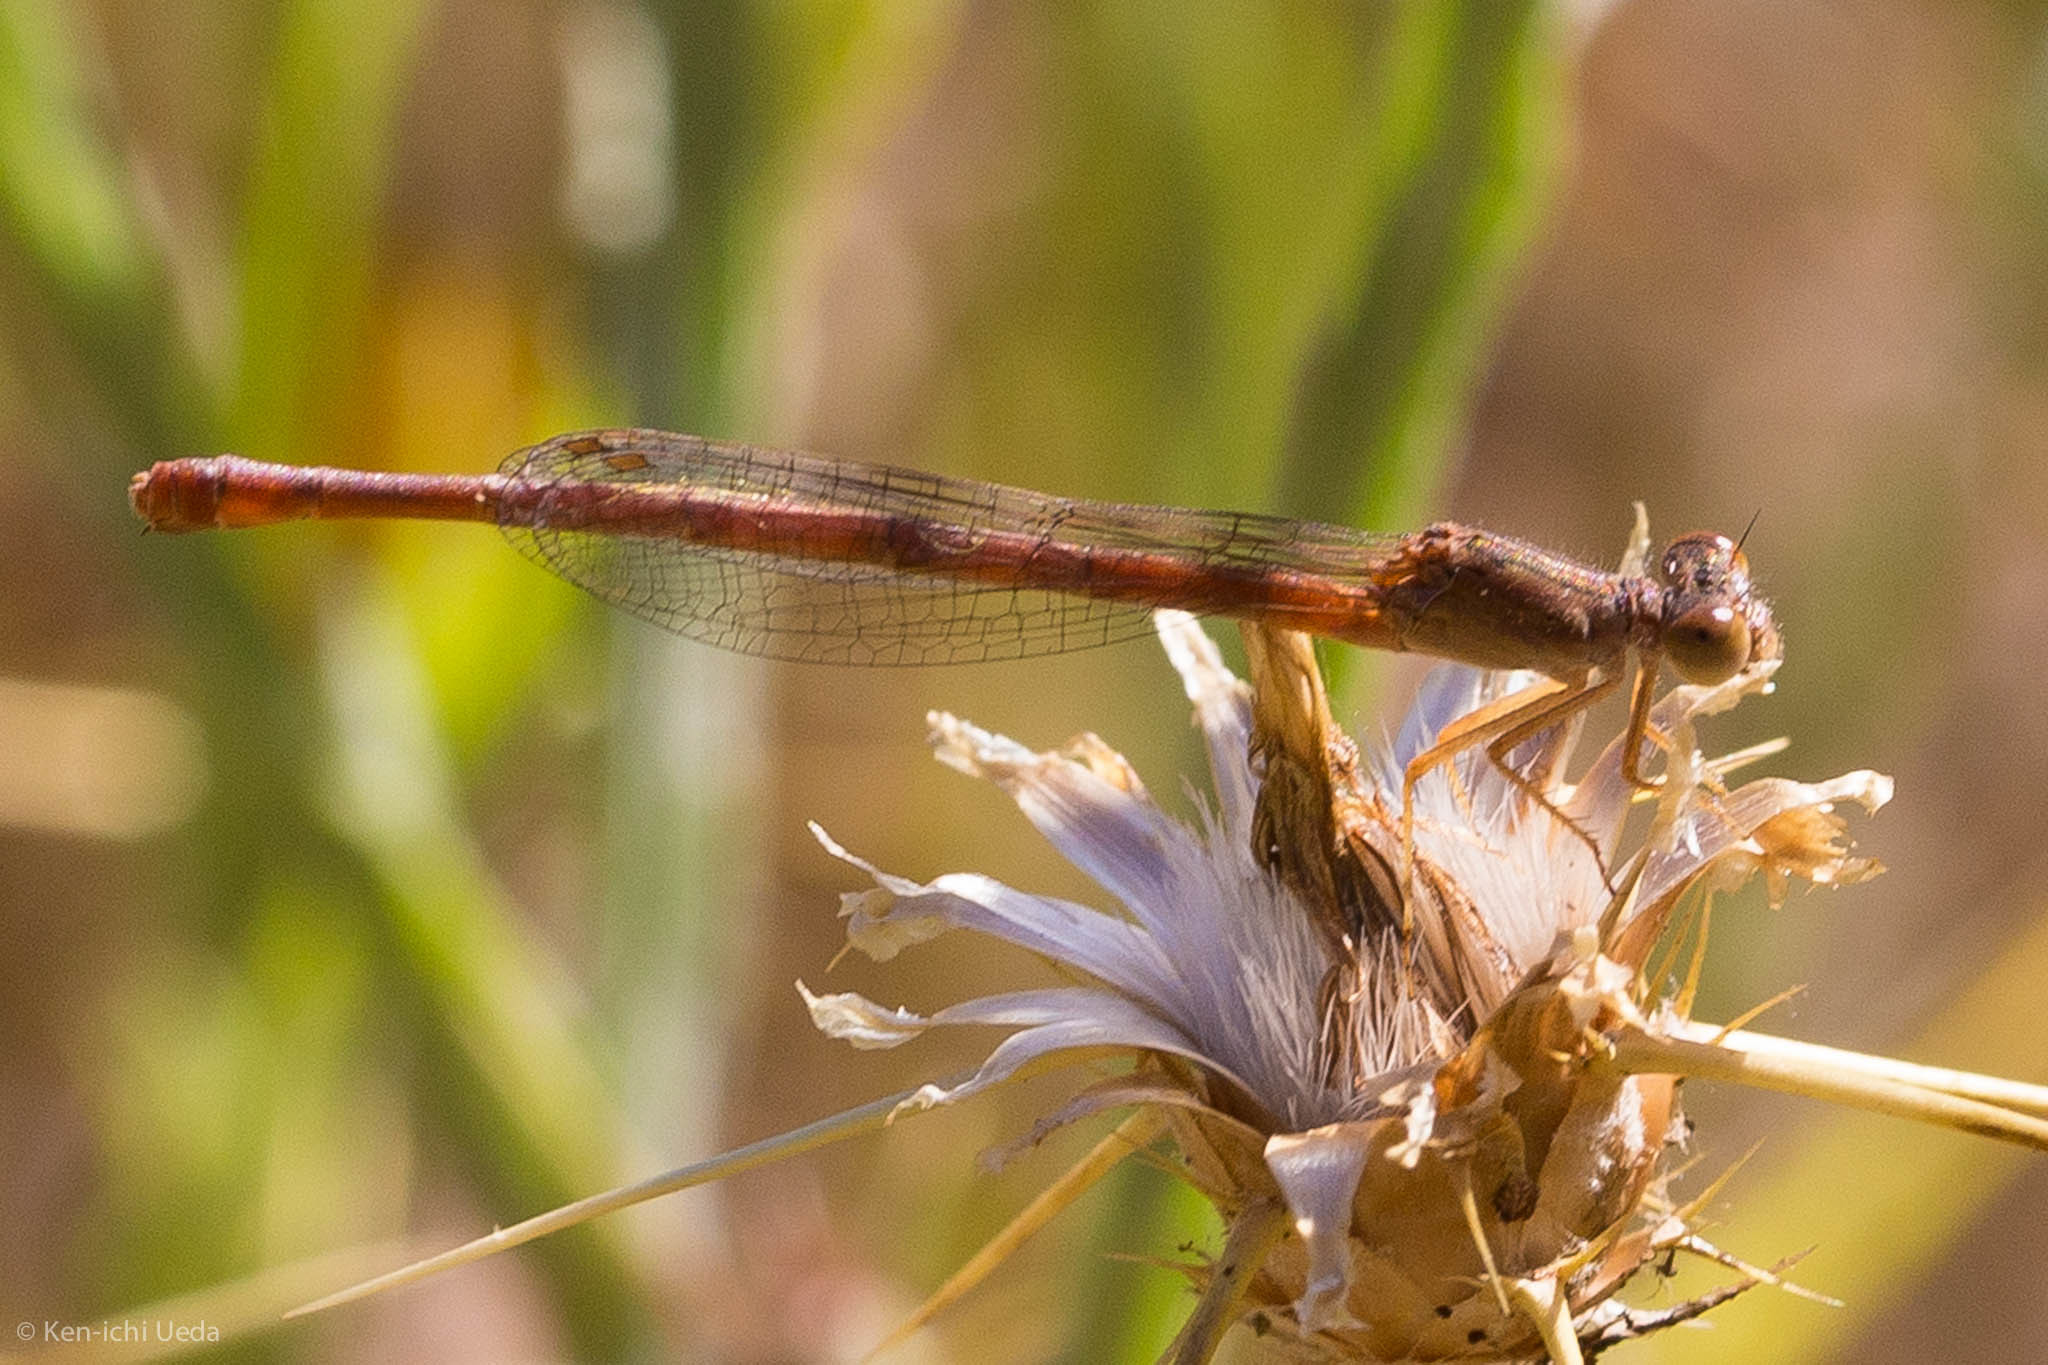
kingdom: Animalia
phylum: Arthropoda
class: Insecta
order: Odonata
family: Coenagrionidae
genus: Telebasis
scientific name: Telebasis salva
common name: Desert firetail
